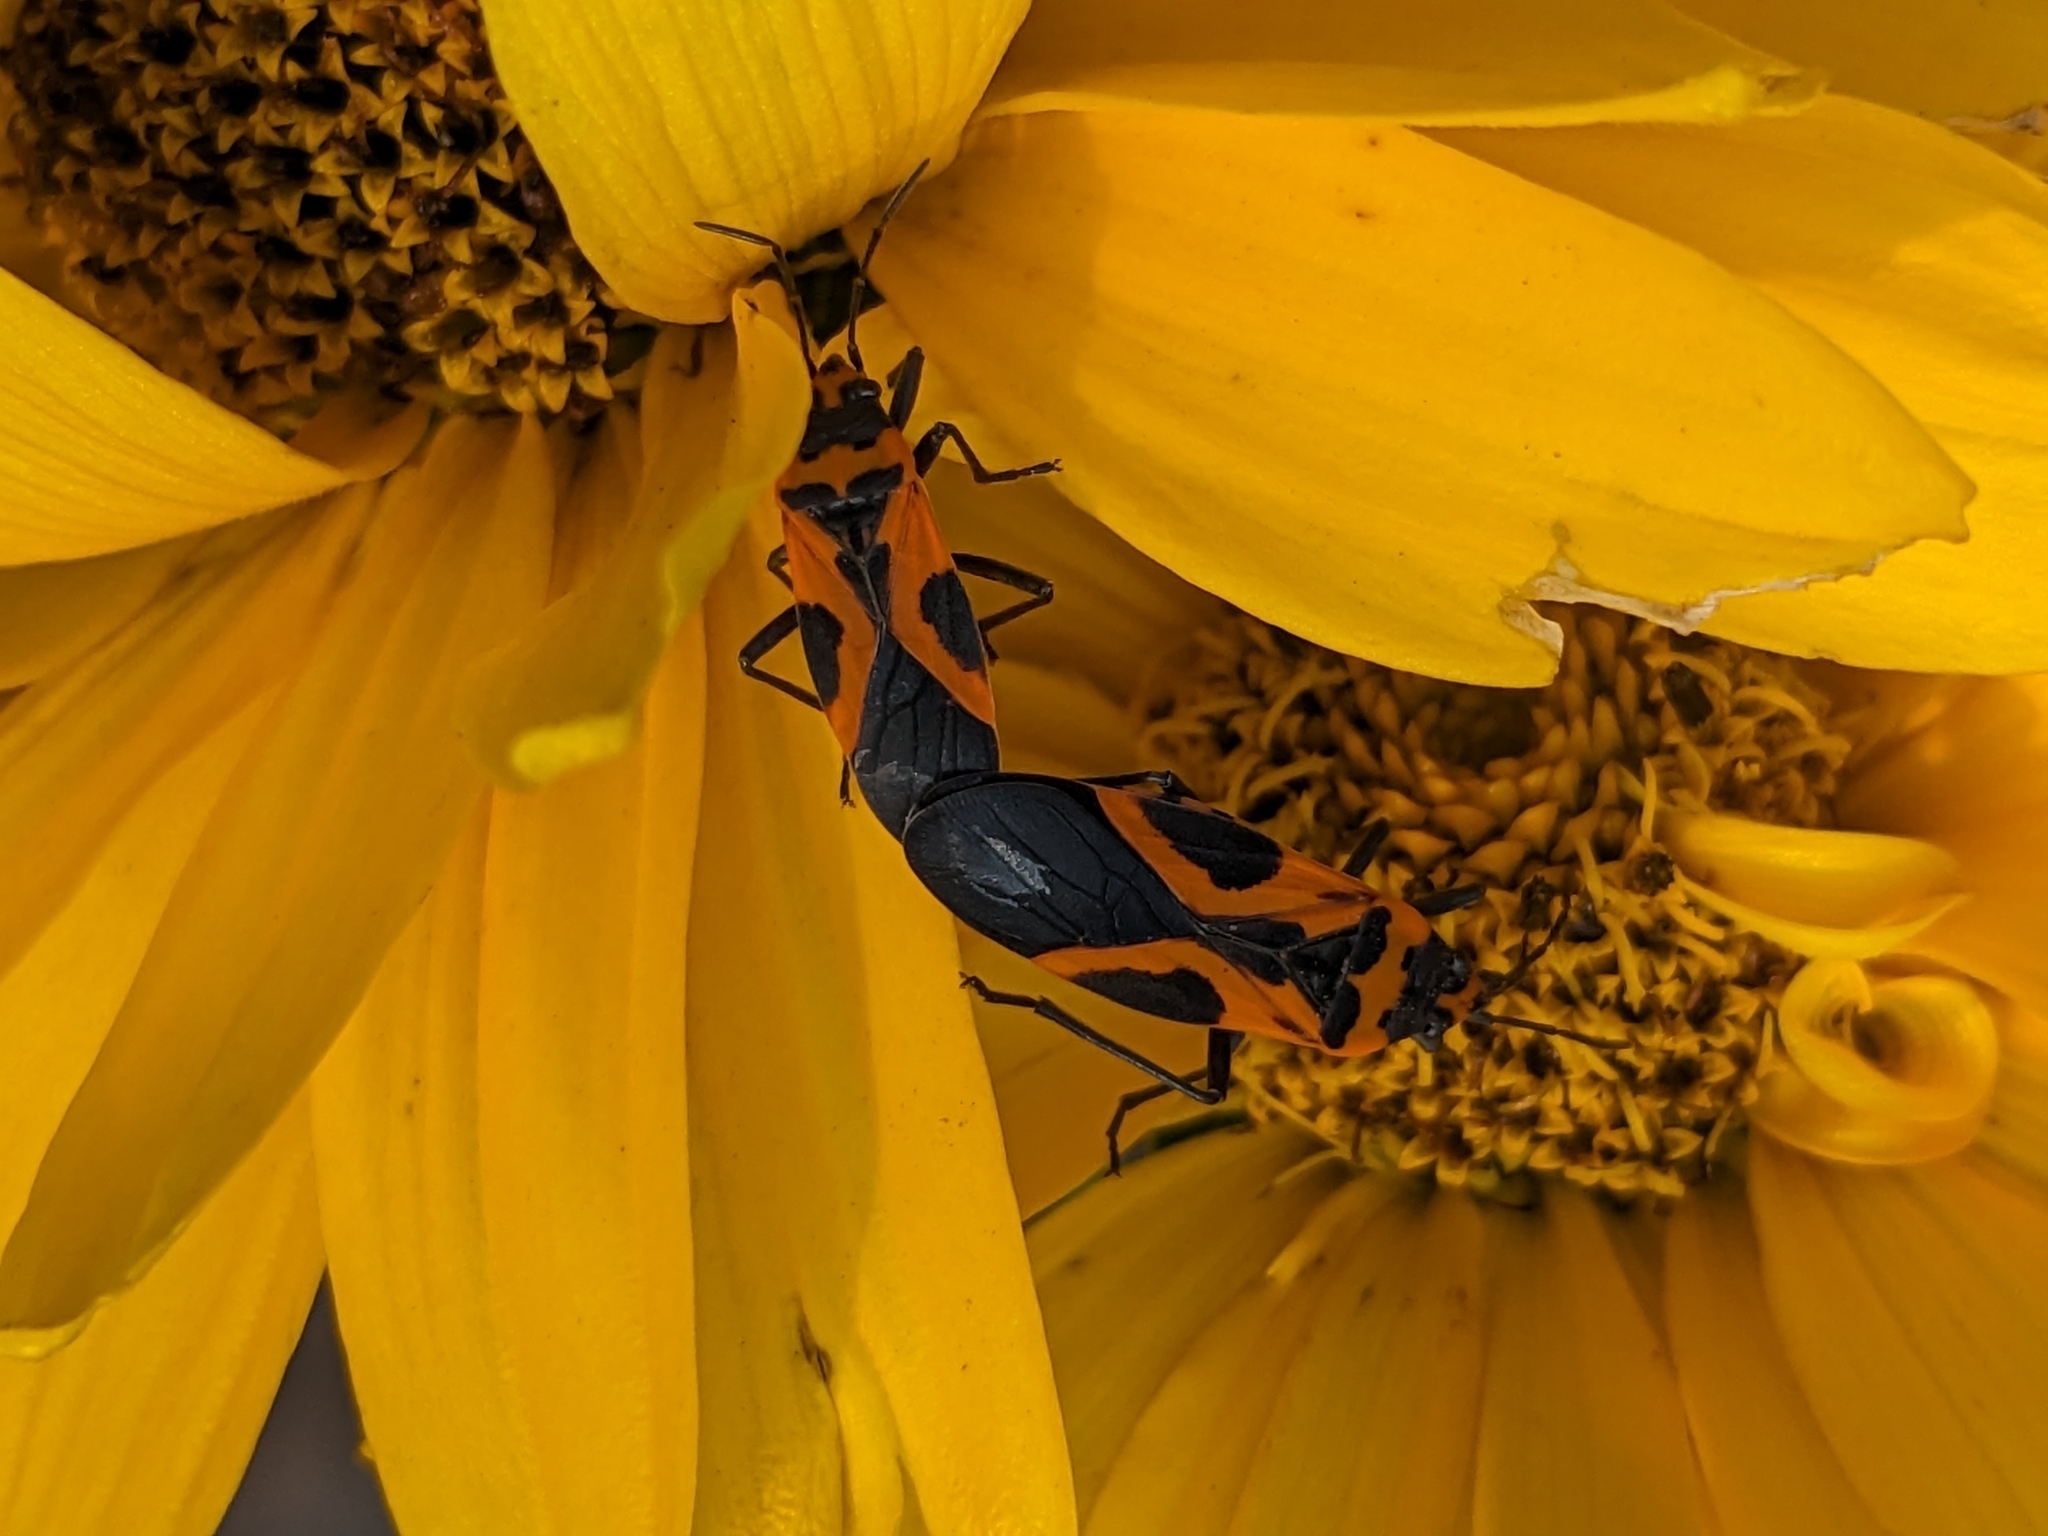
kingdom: Animalia
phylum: Arthropoda
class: Insecta
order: Hemiptera
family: Lygaeidae
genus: Lygaeus
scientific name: Lygaeus turcicus
